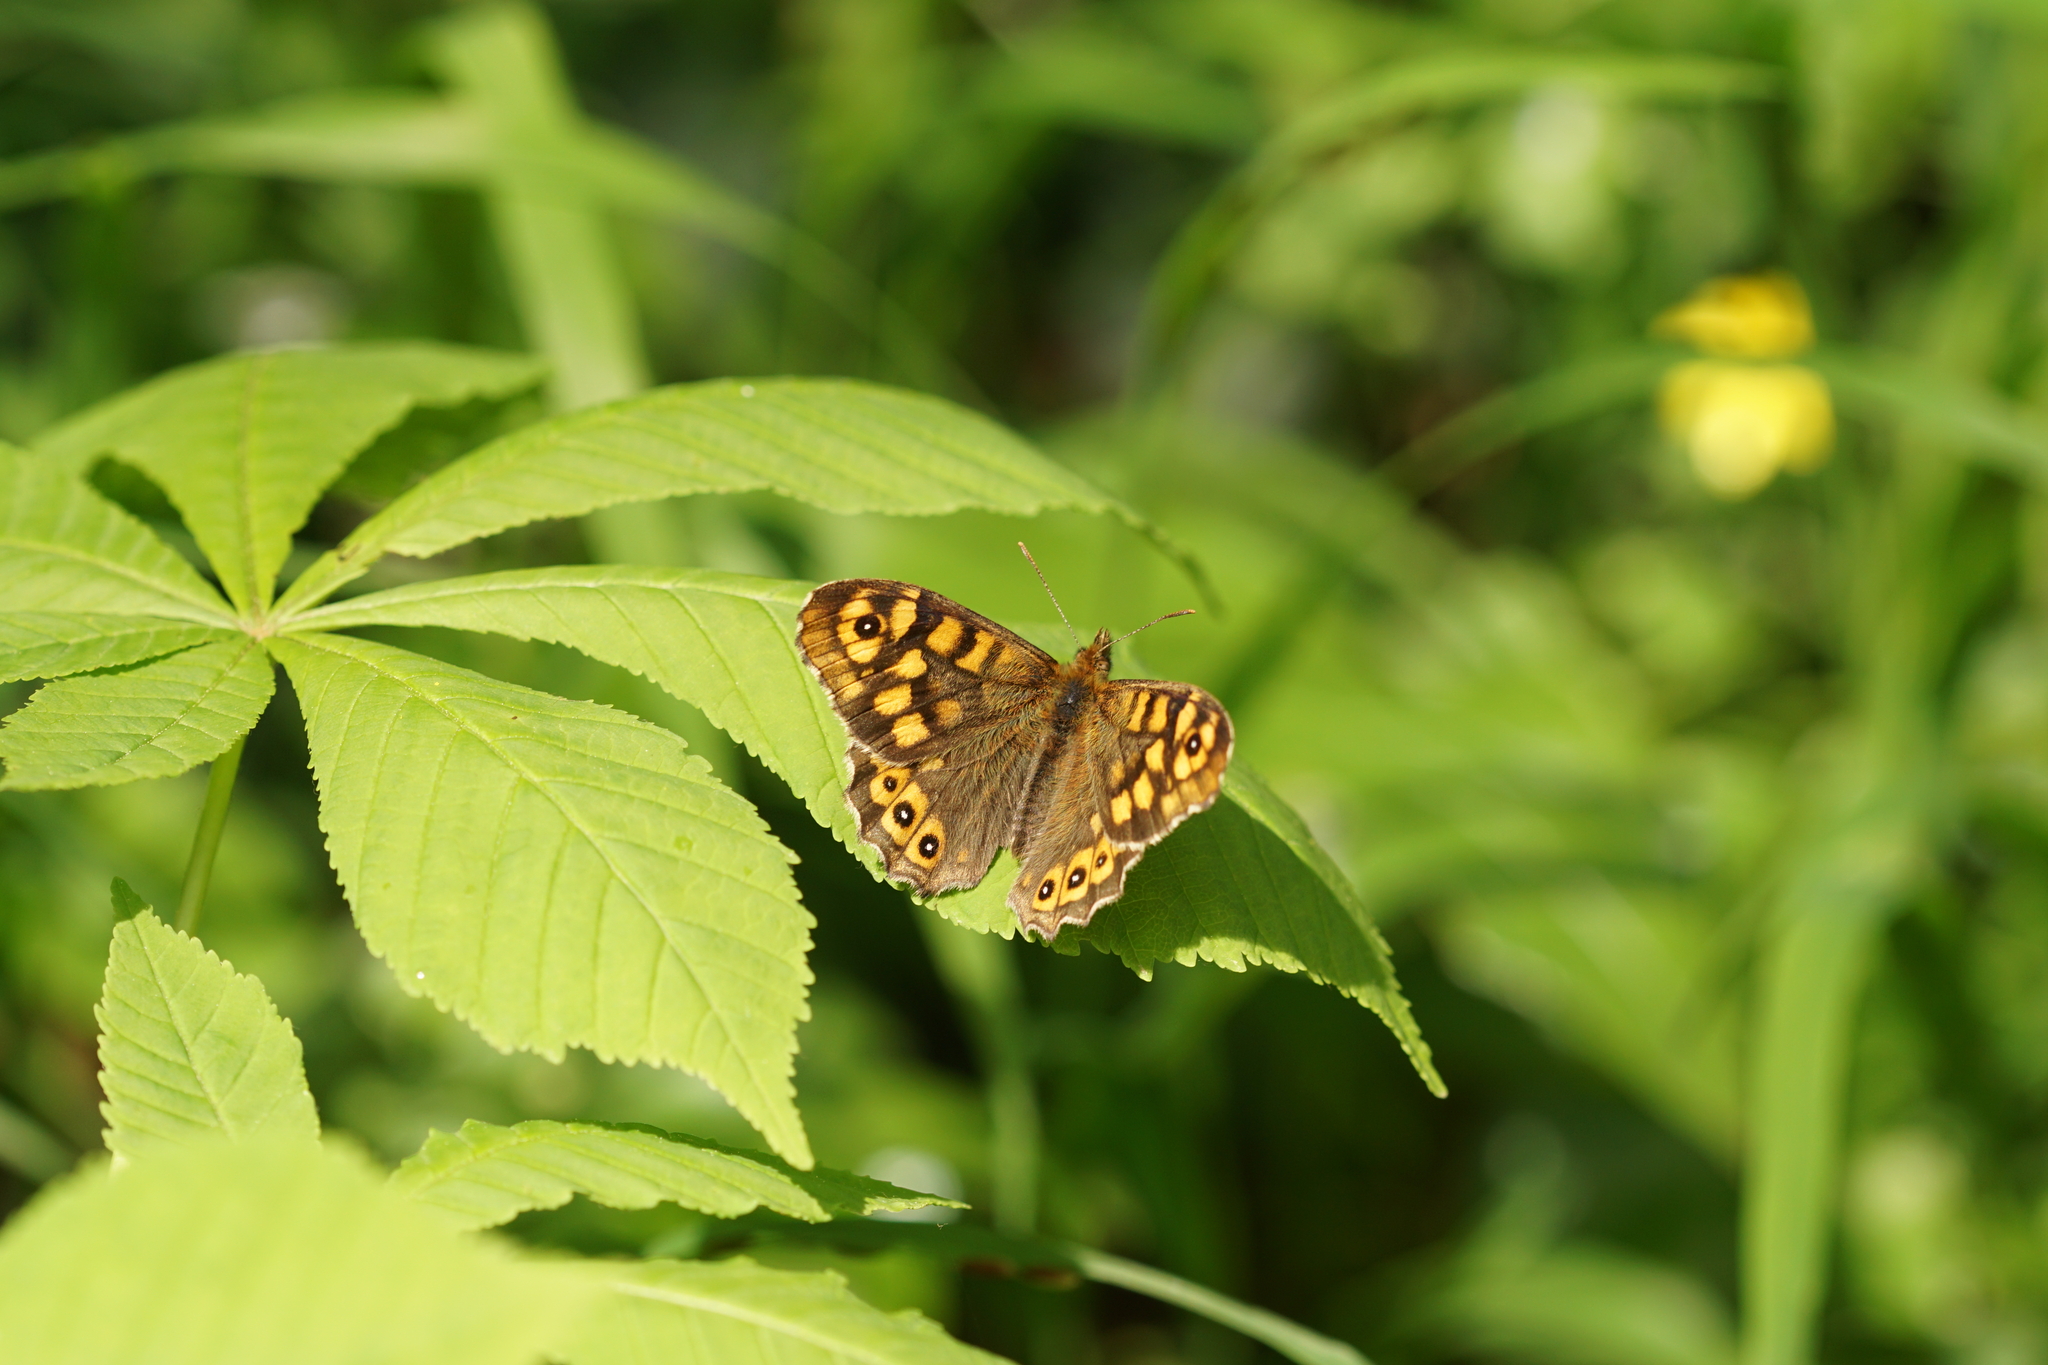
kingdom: Animalia
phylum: Arthropoda
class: Insecta
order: Lepidoptera
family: Nymphalidae
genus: Pararge
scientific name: Pararge aegeria
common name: Speckled wood
